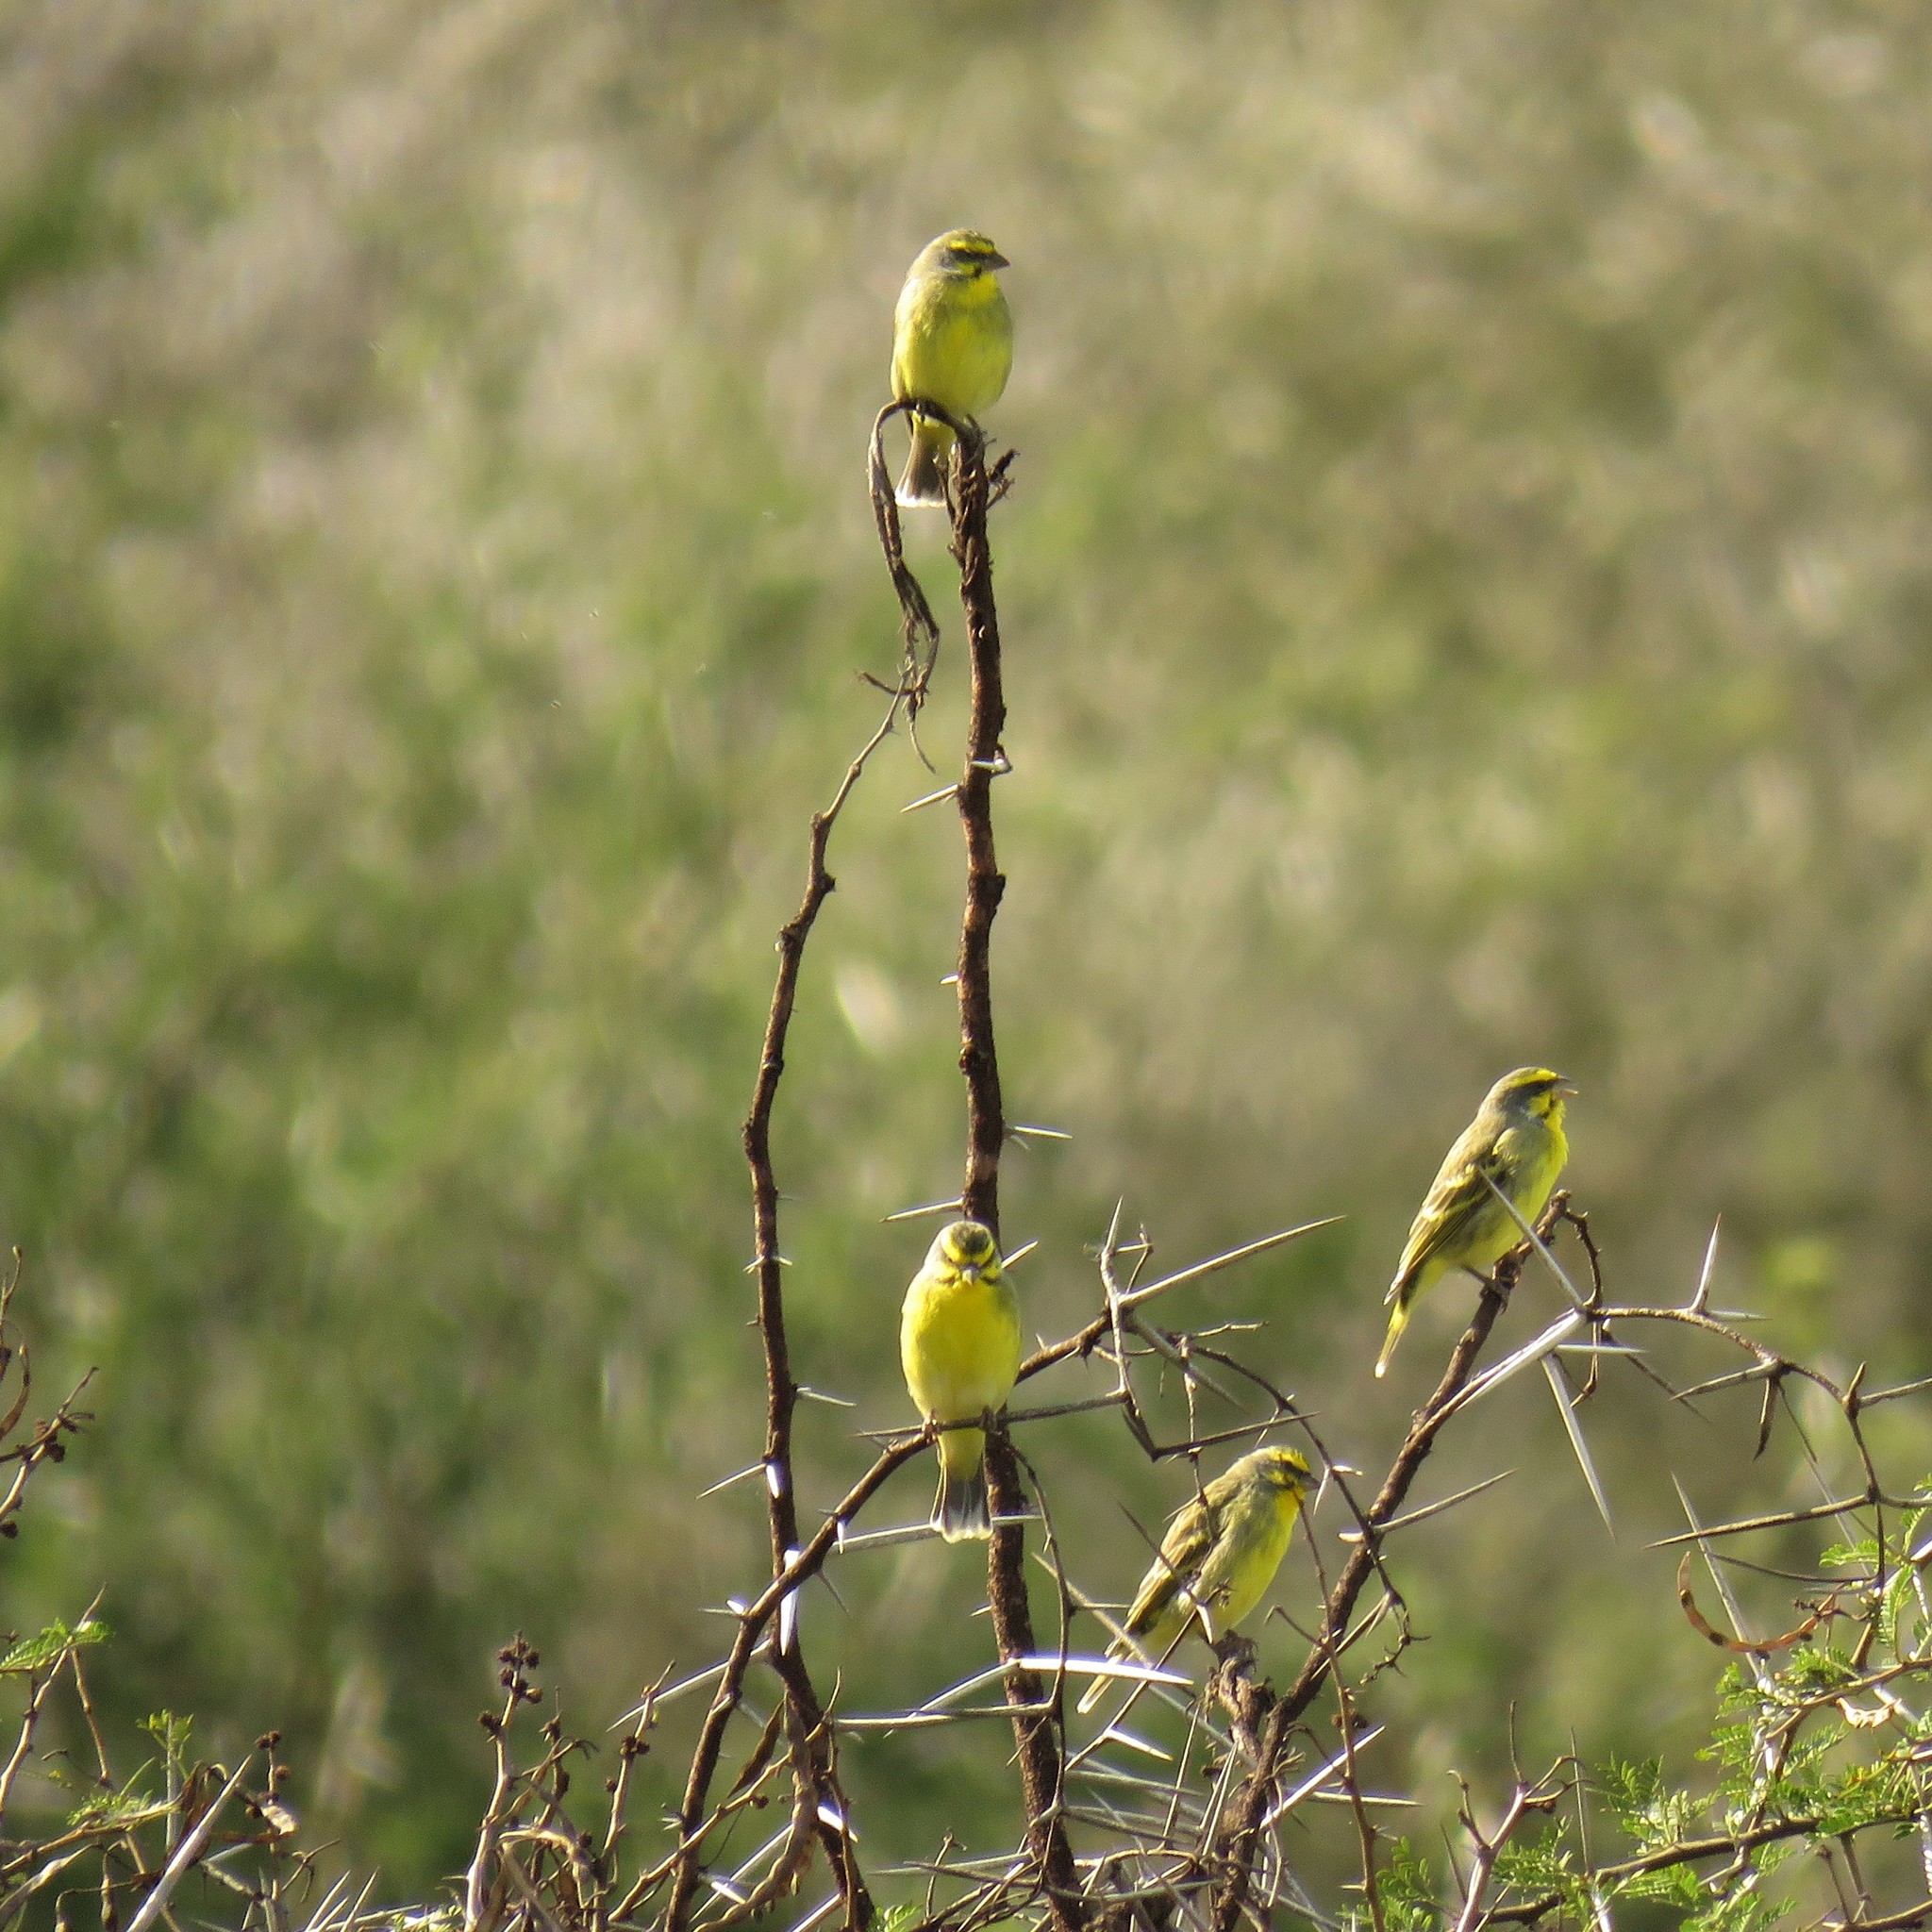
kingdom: Animalia
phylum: Chordata
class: Aves
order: Passeriformes
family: Fringillidae
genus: Crithagra
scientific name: Crithagra mozambica
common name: Yellow-fronted canary
